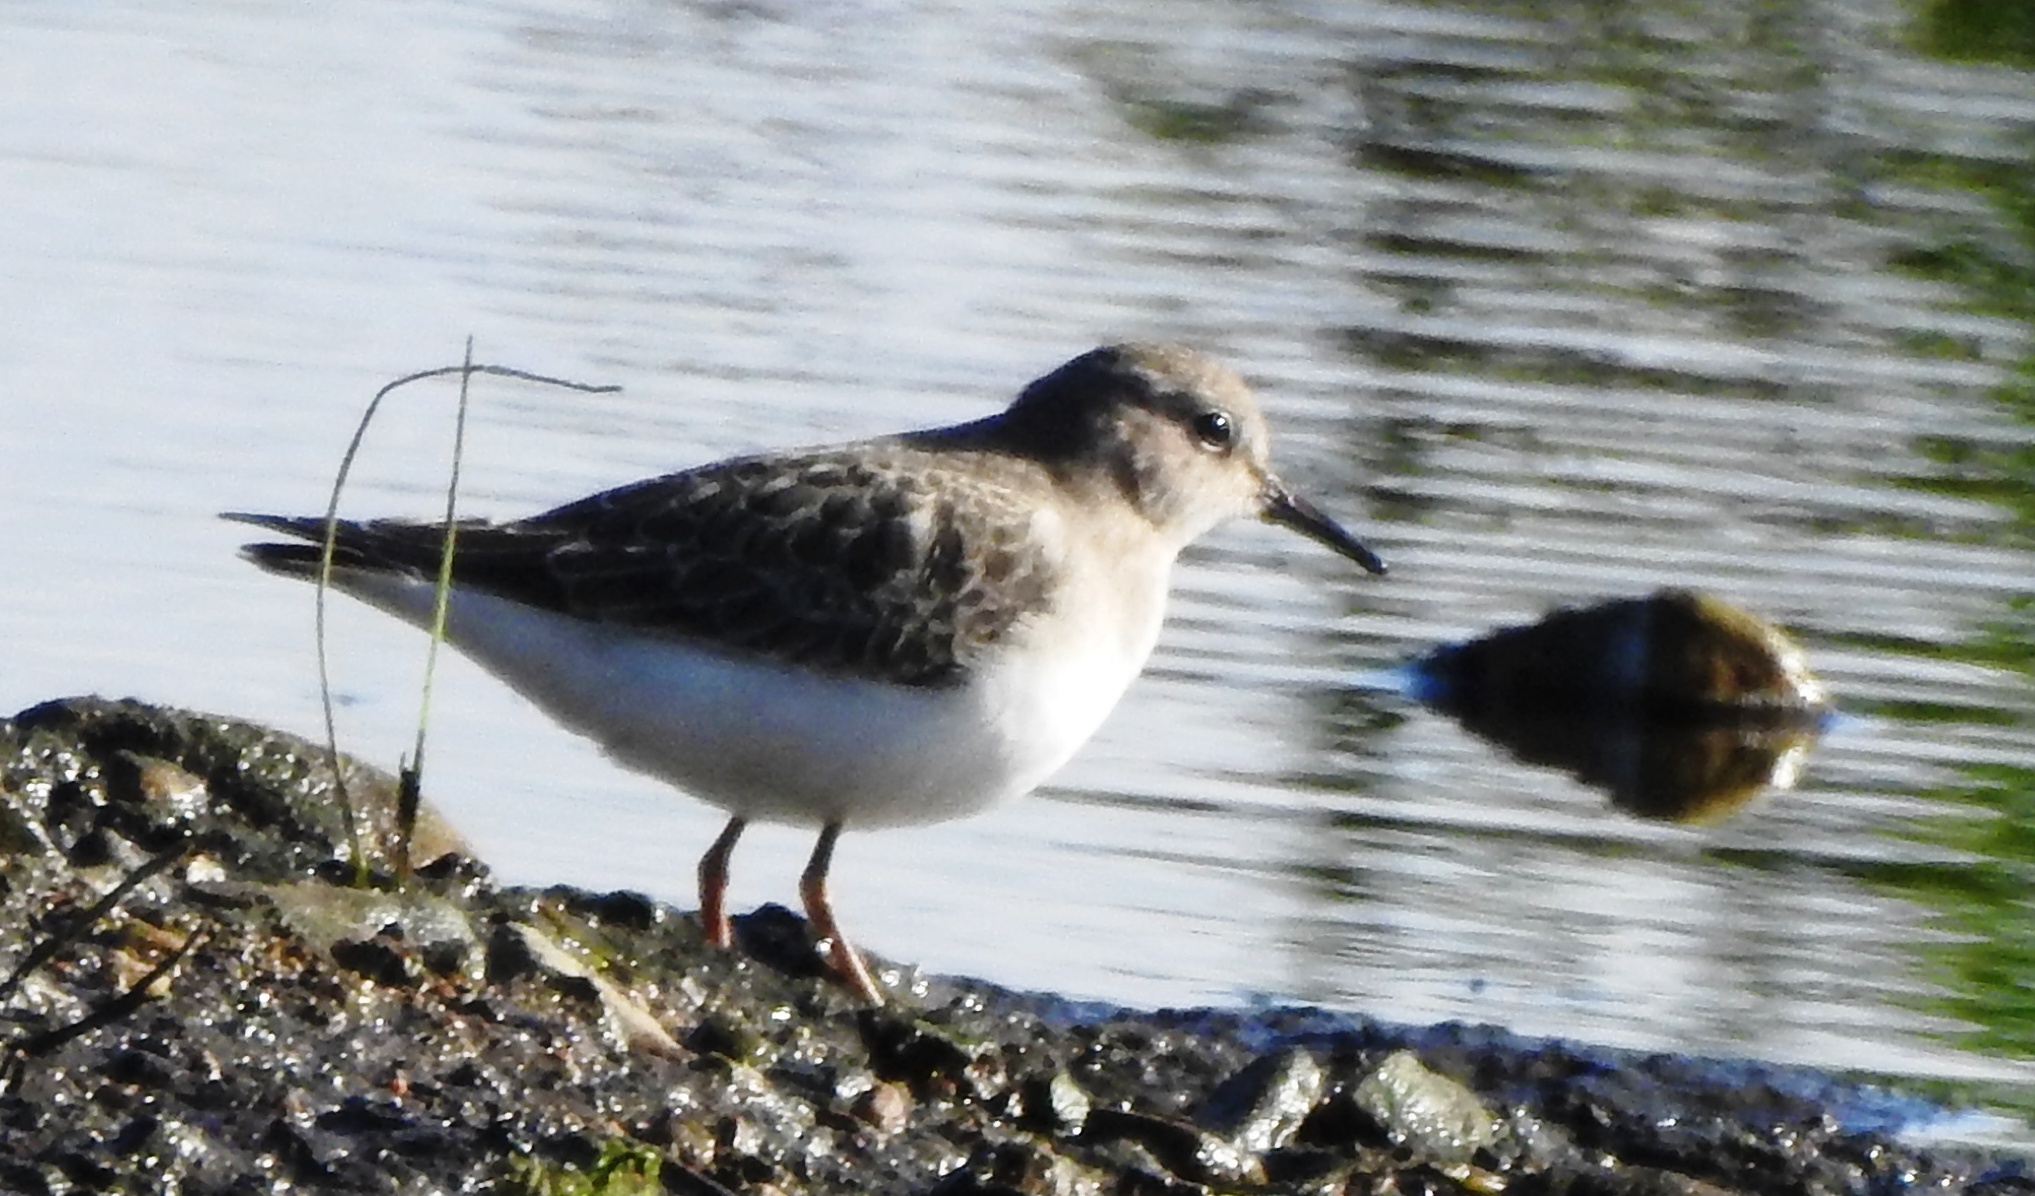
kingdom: Animalia
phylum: Chordata
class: Aves
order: Charadriiformes
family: Scolopacidae
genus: Calidris
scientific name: Calidris temminckii
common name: Temminck's stint
